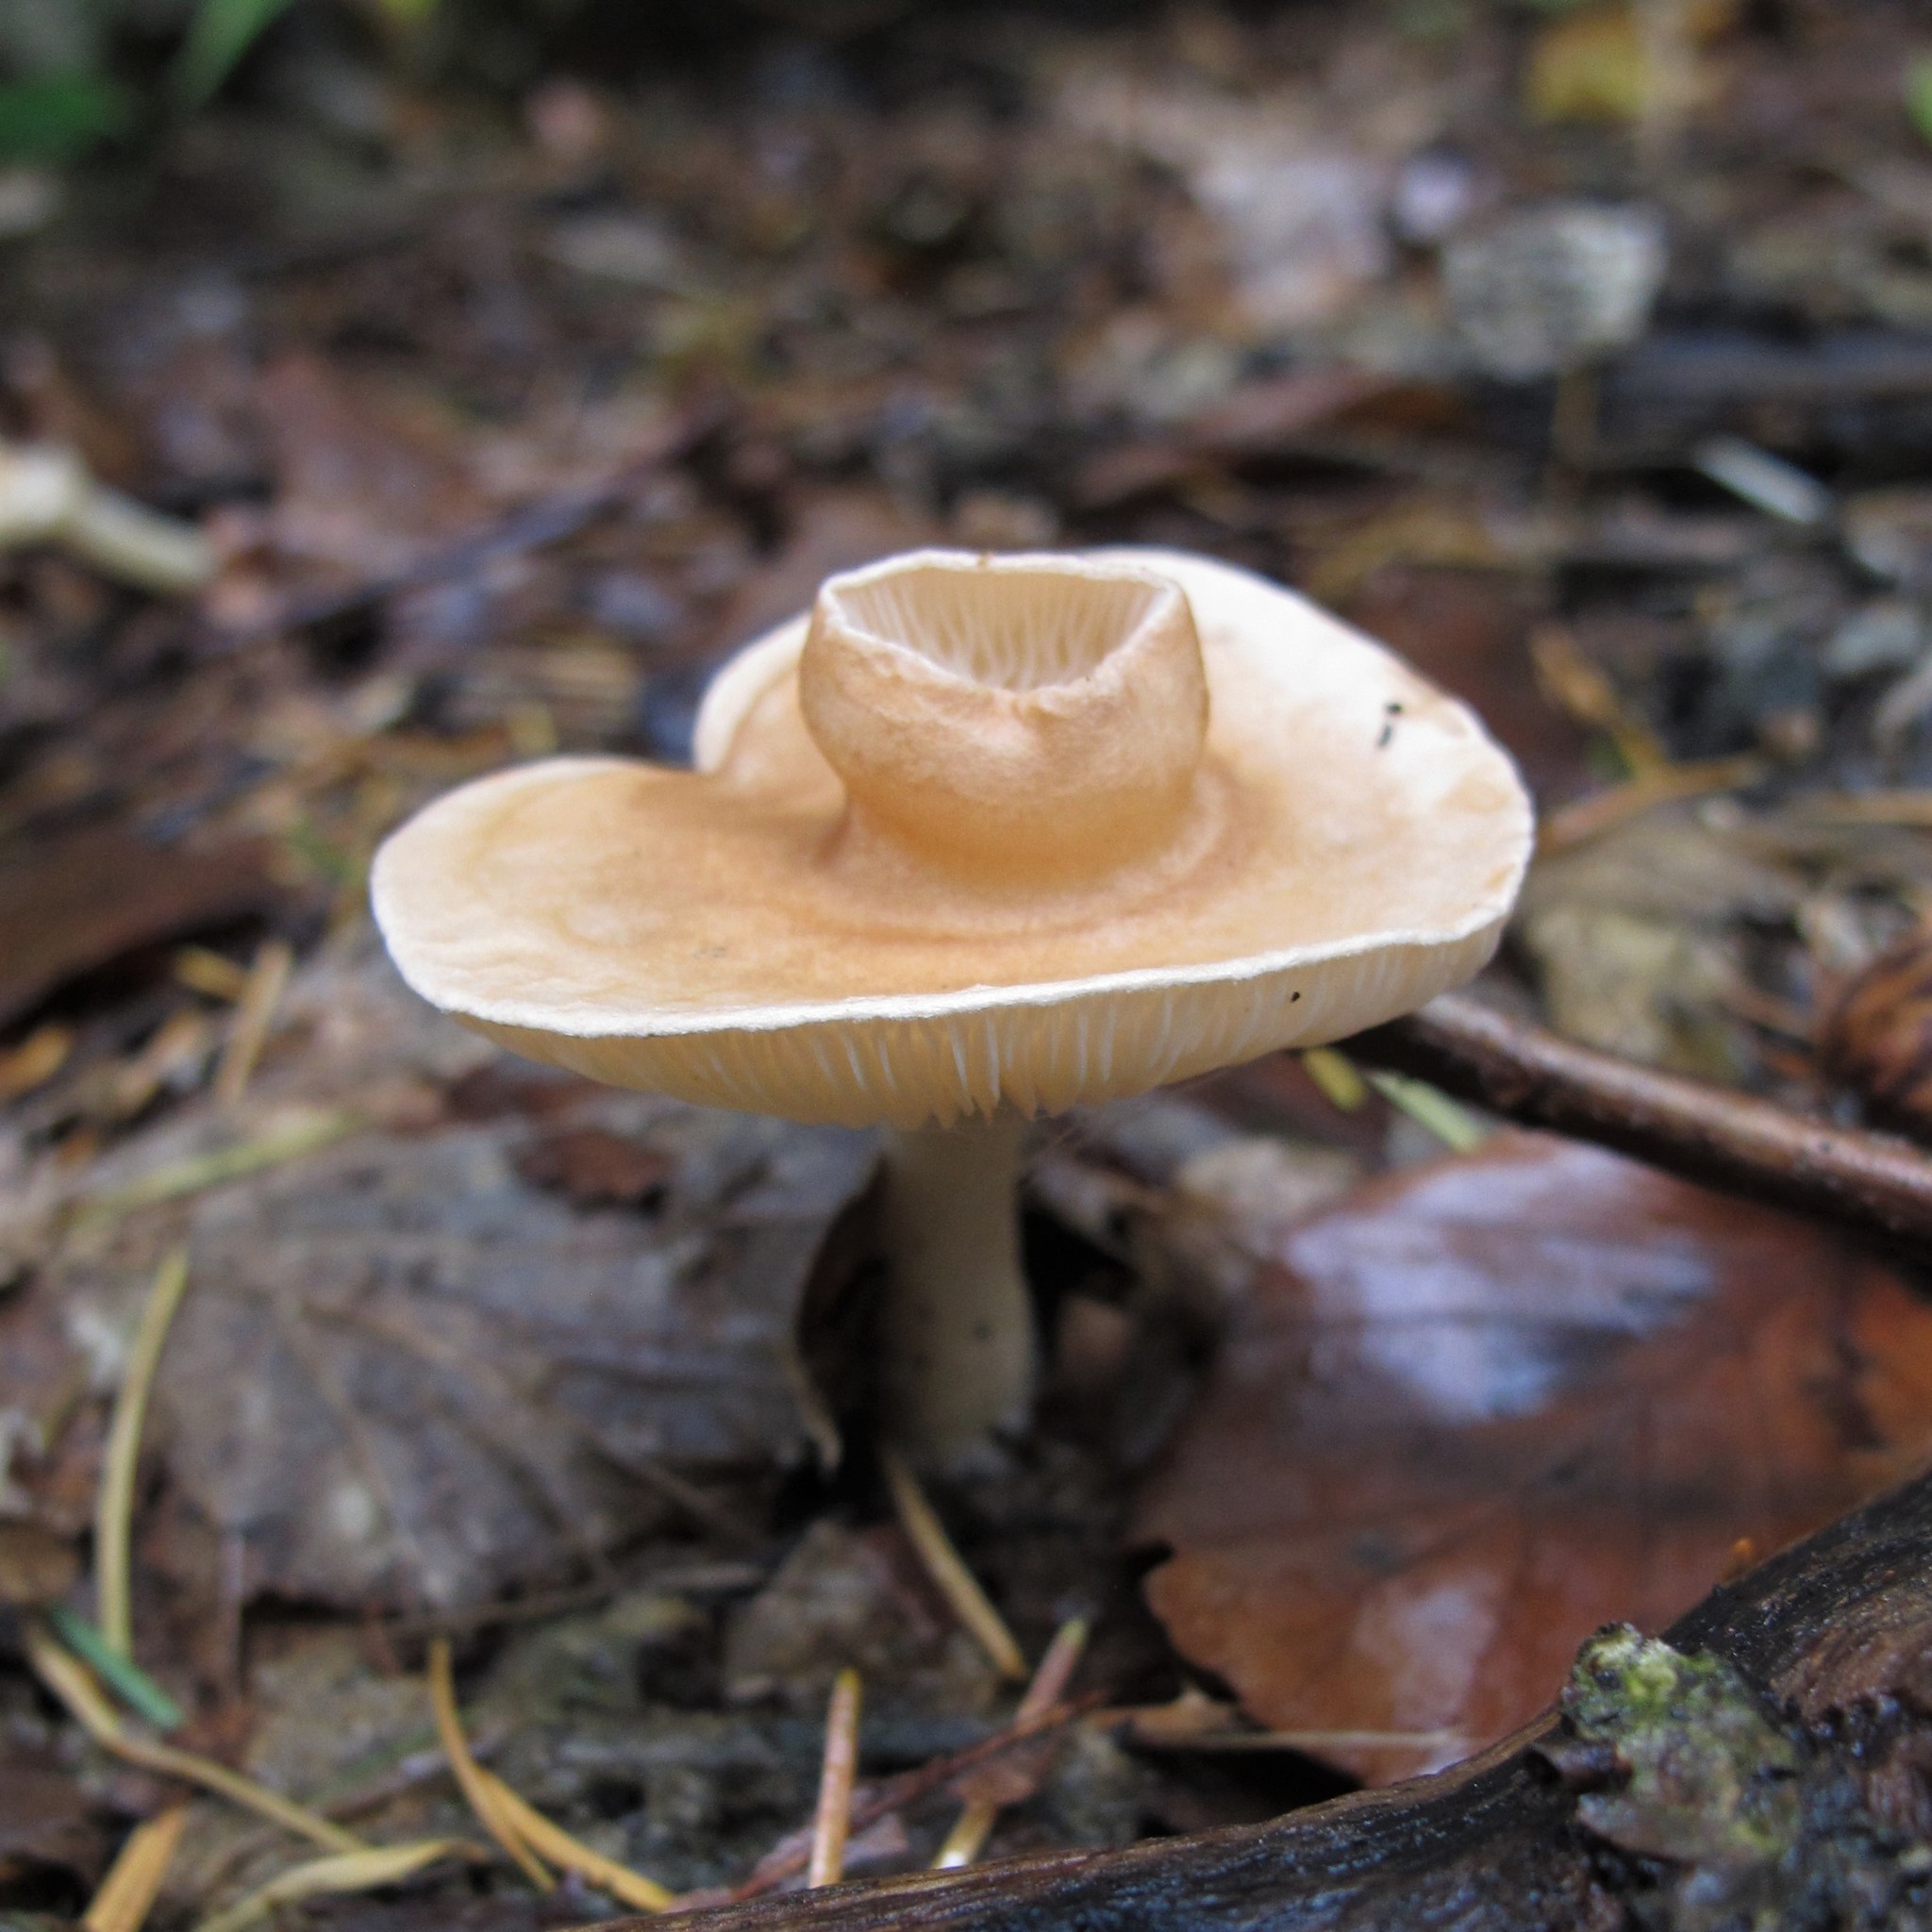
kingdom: Fungi
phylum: Basidiomycota
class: Agaricomycetes
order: Agaricales
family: Tricholomataceae
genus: Infundibulicybe
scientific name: Infundibulicybe gibba
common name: Common funnel
